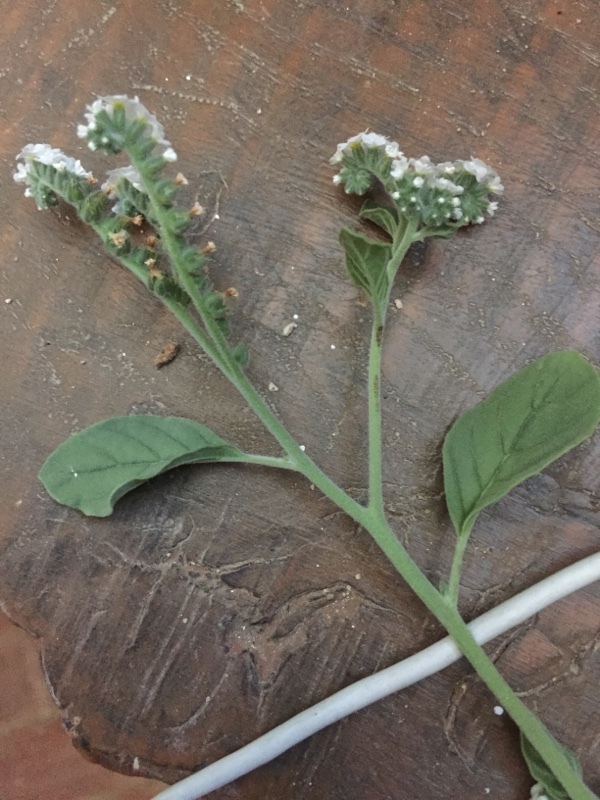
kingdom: Plantae
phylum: Tracheophyta
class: Magnoliopsida
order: Boraginales
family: Heliotropiaceae
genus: Heliotropium
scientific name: Heliotropium europaeum
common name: European heliotrope
